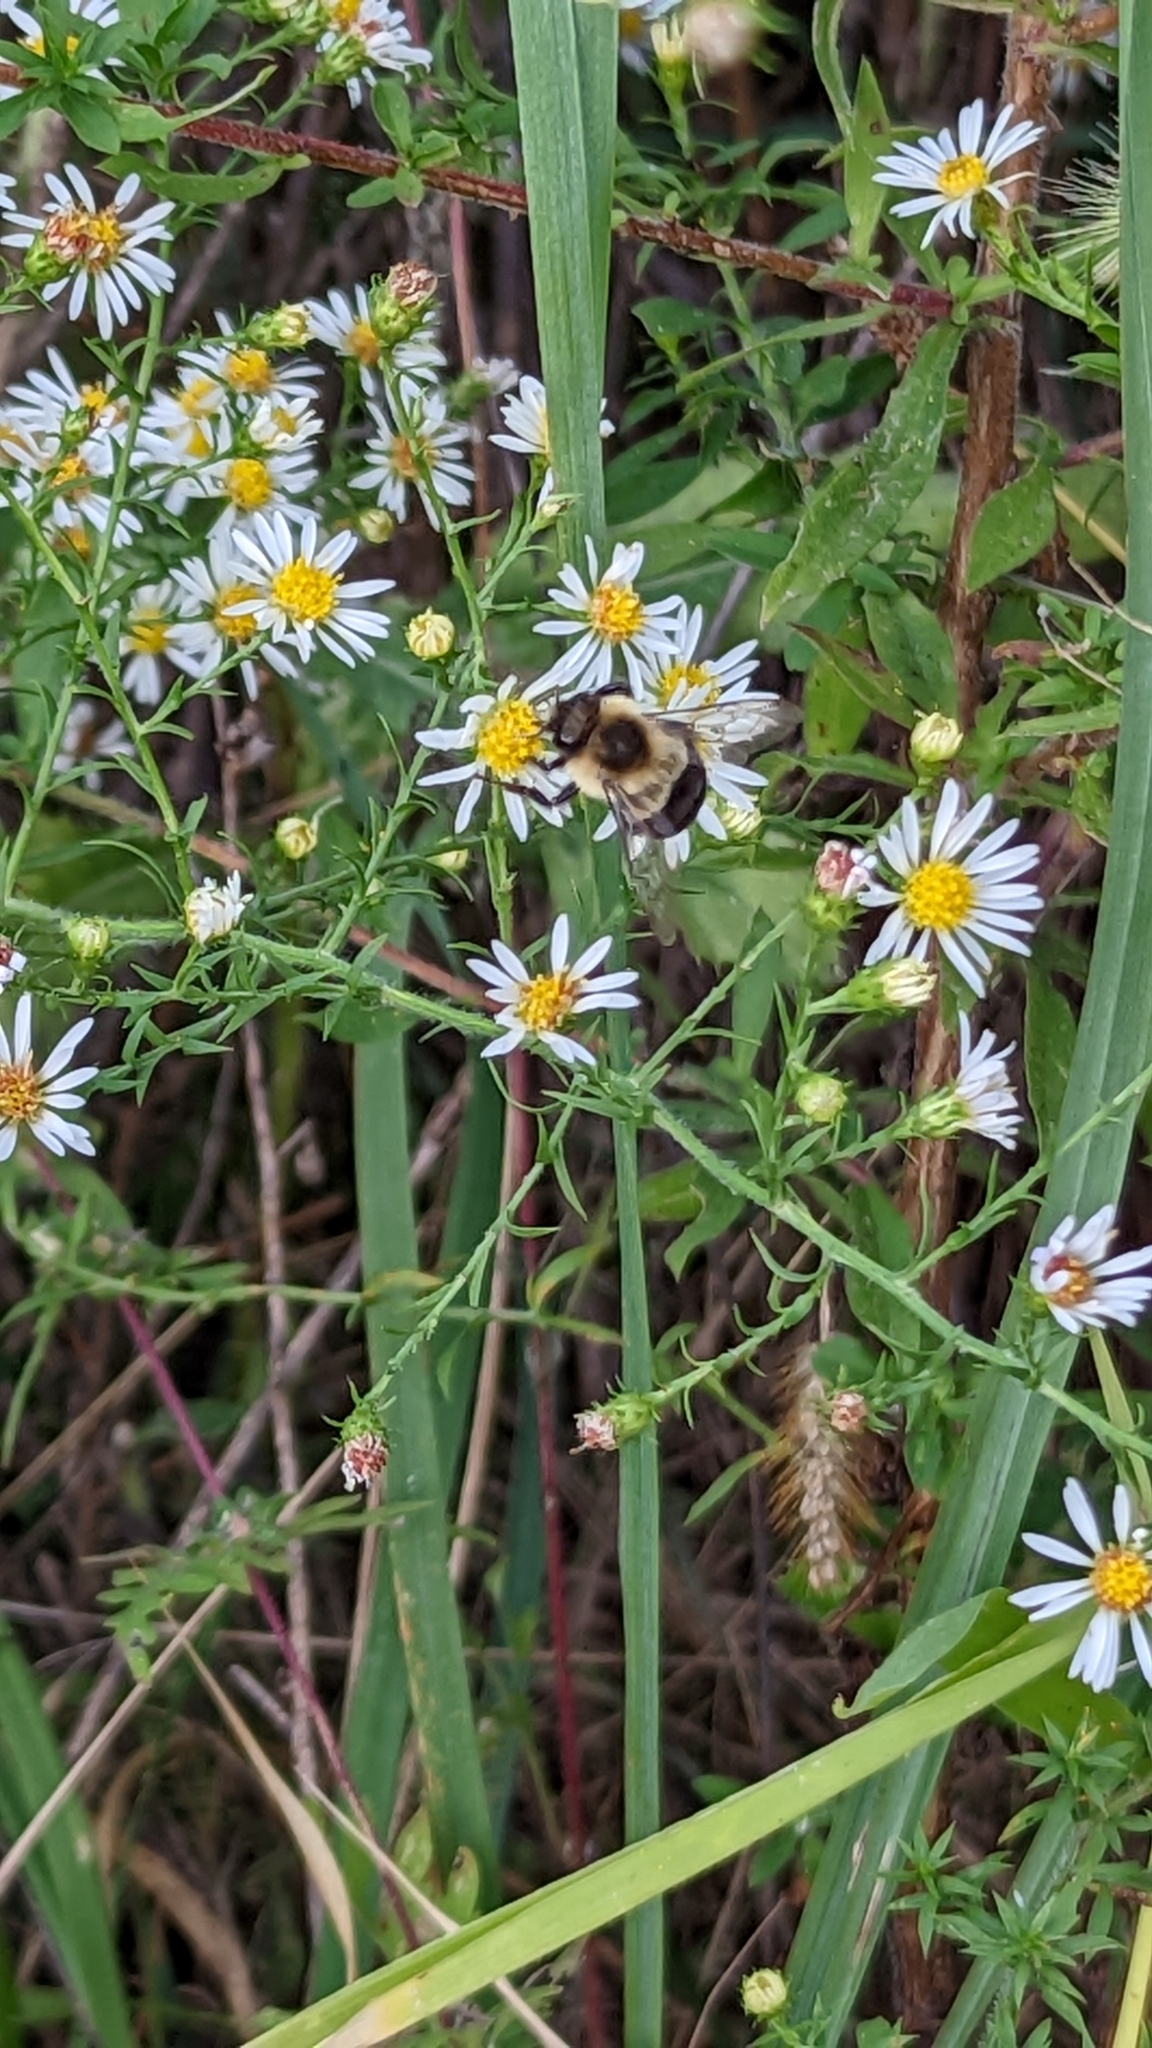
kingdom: Animalia
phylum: Arthropoda
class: Insecta
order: Hymenoptera
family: Apidae
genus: Bombus
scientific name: Bombus impatiens
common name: Common eastern bumble bee
